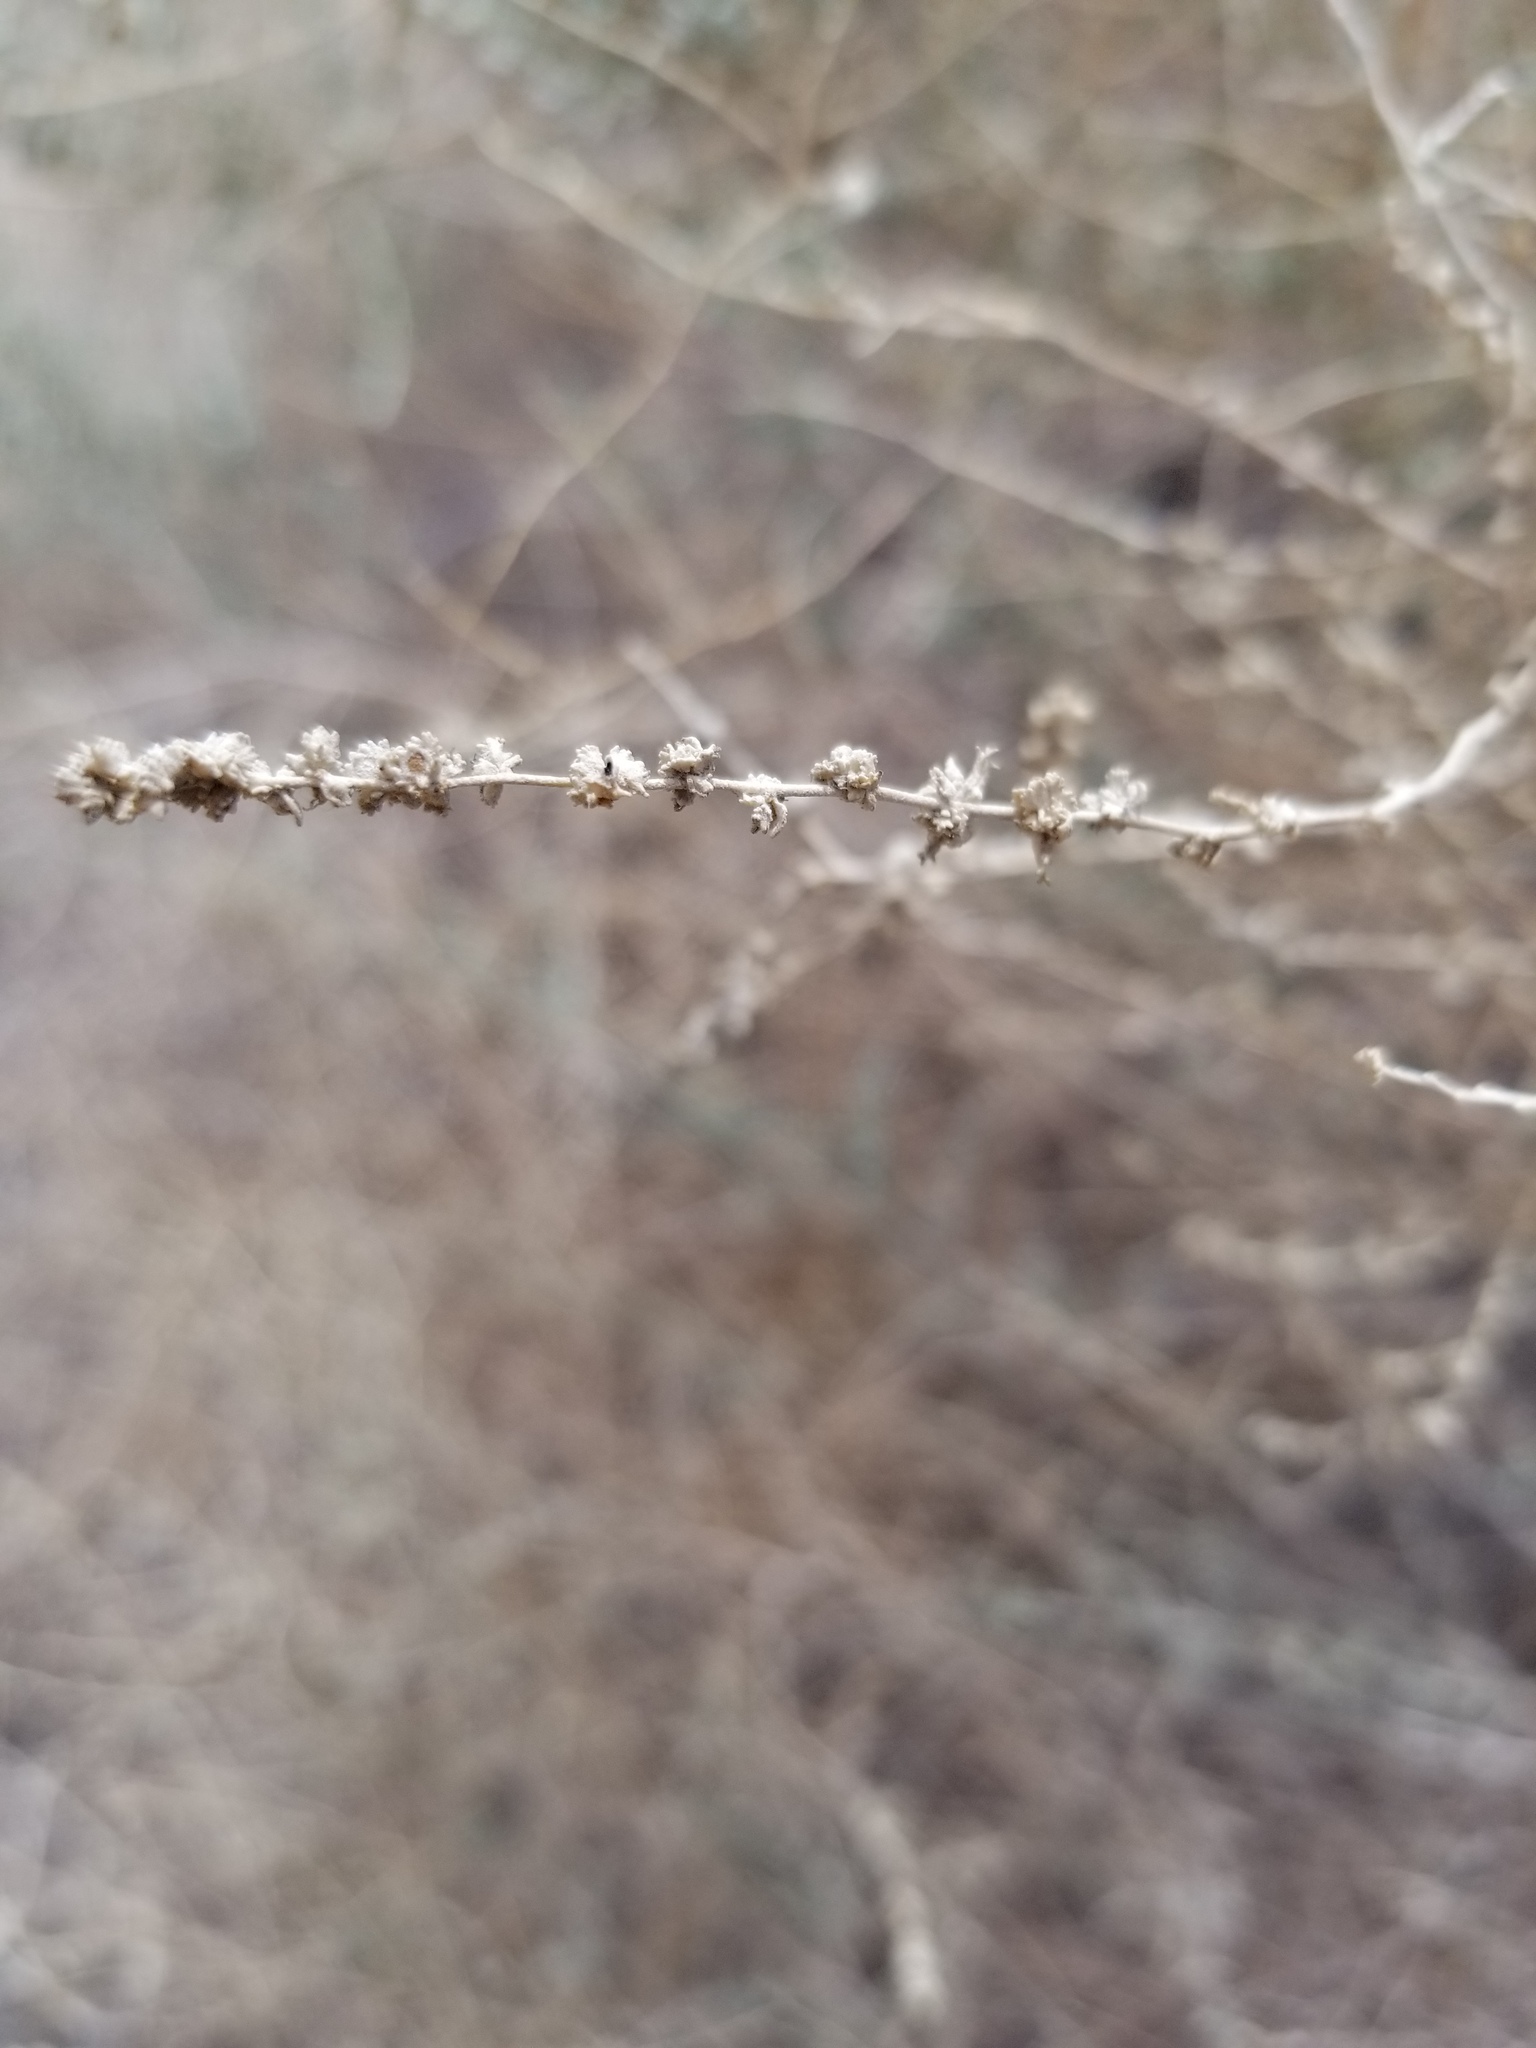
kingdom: Plantae
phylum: Tracheophyta
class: Magnoliopsida
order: Caryophyllales
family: Amaranthaceae
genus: Atriplex
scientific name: Atriplex polycarpa
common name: Desert saltbush
